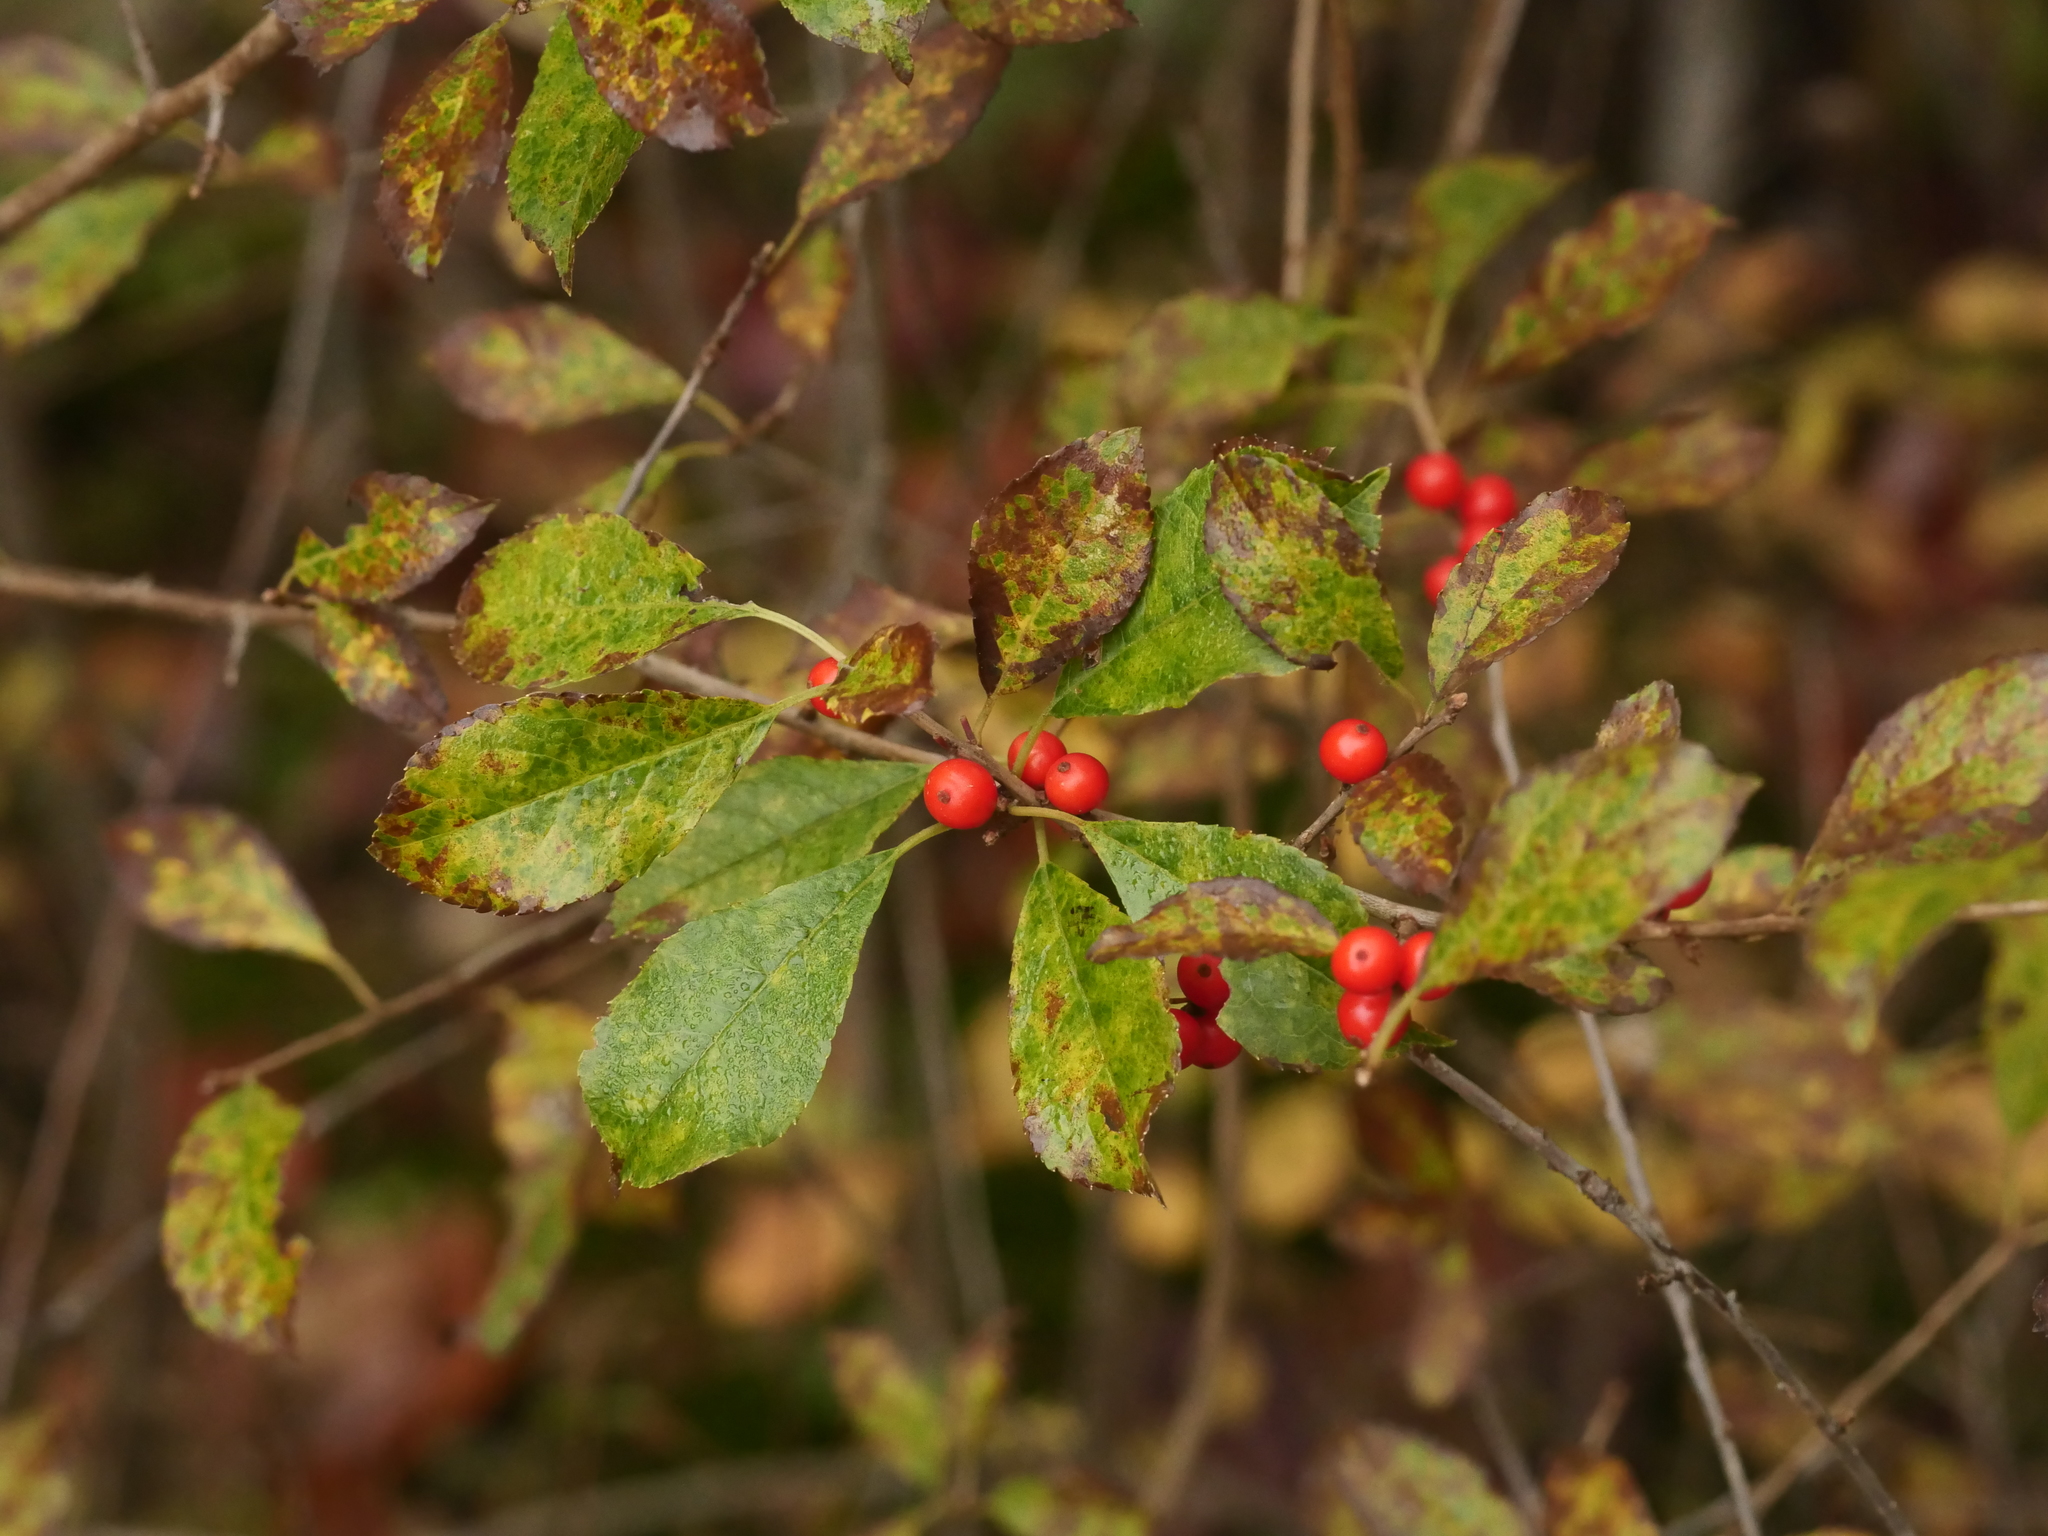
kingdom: Plantae
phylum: Tracheophyta
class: Magnoliopsida
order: Aquifoliales
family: Aquifoliaceae
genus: Ilex
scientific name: Ilex verticillata
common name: Virginia winterberry
